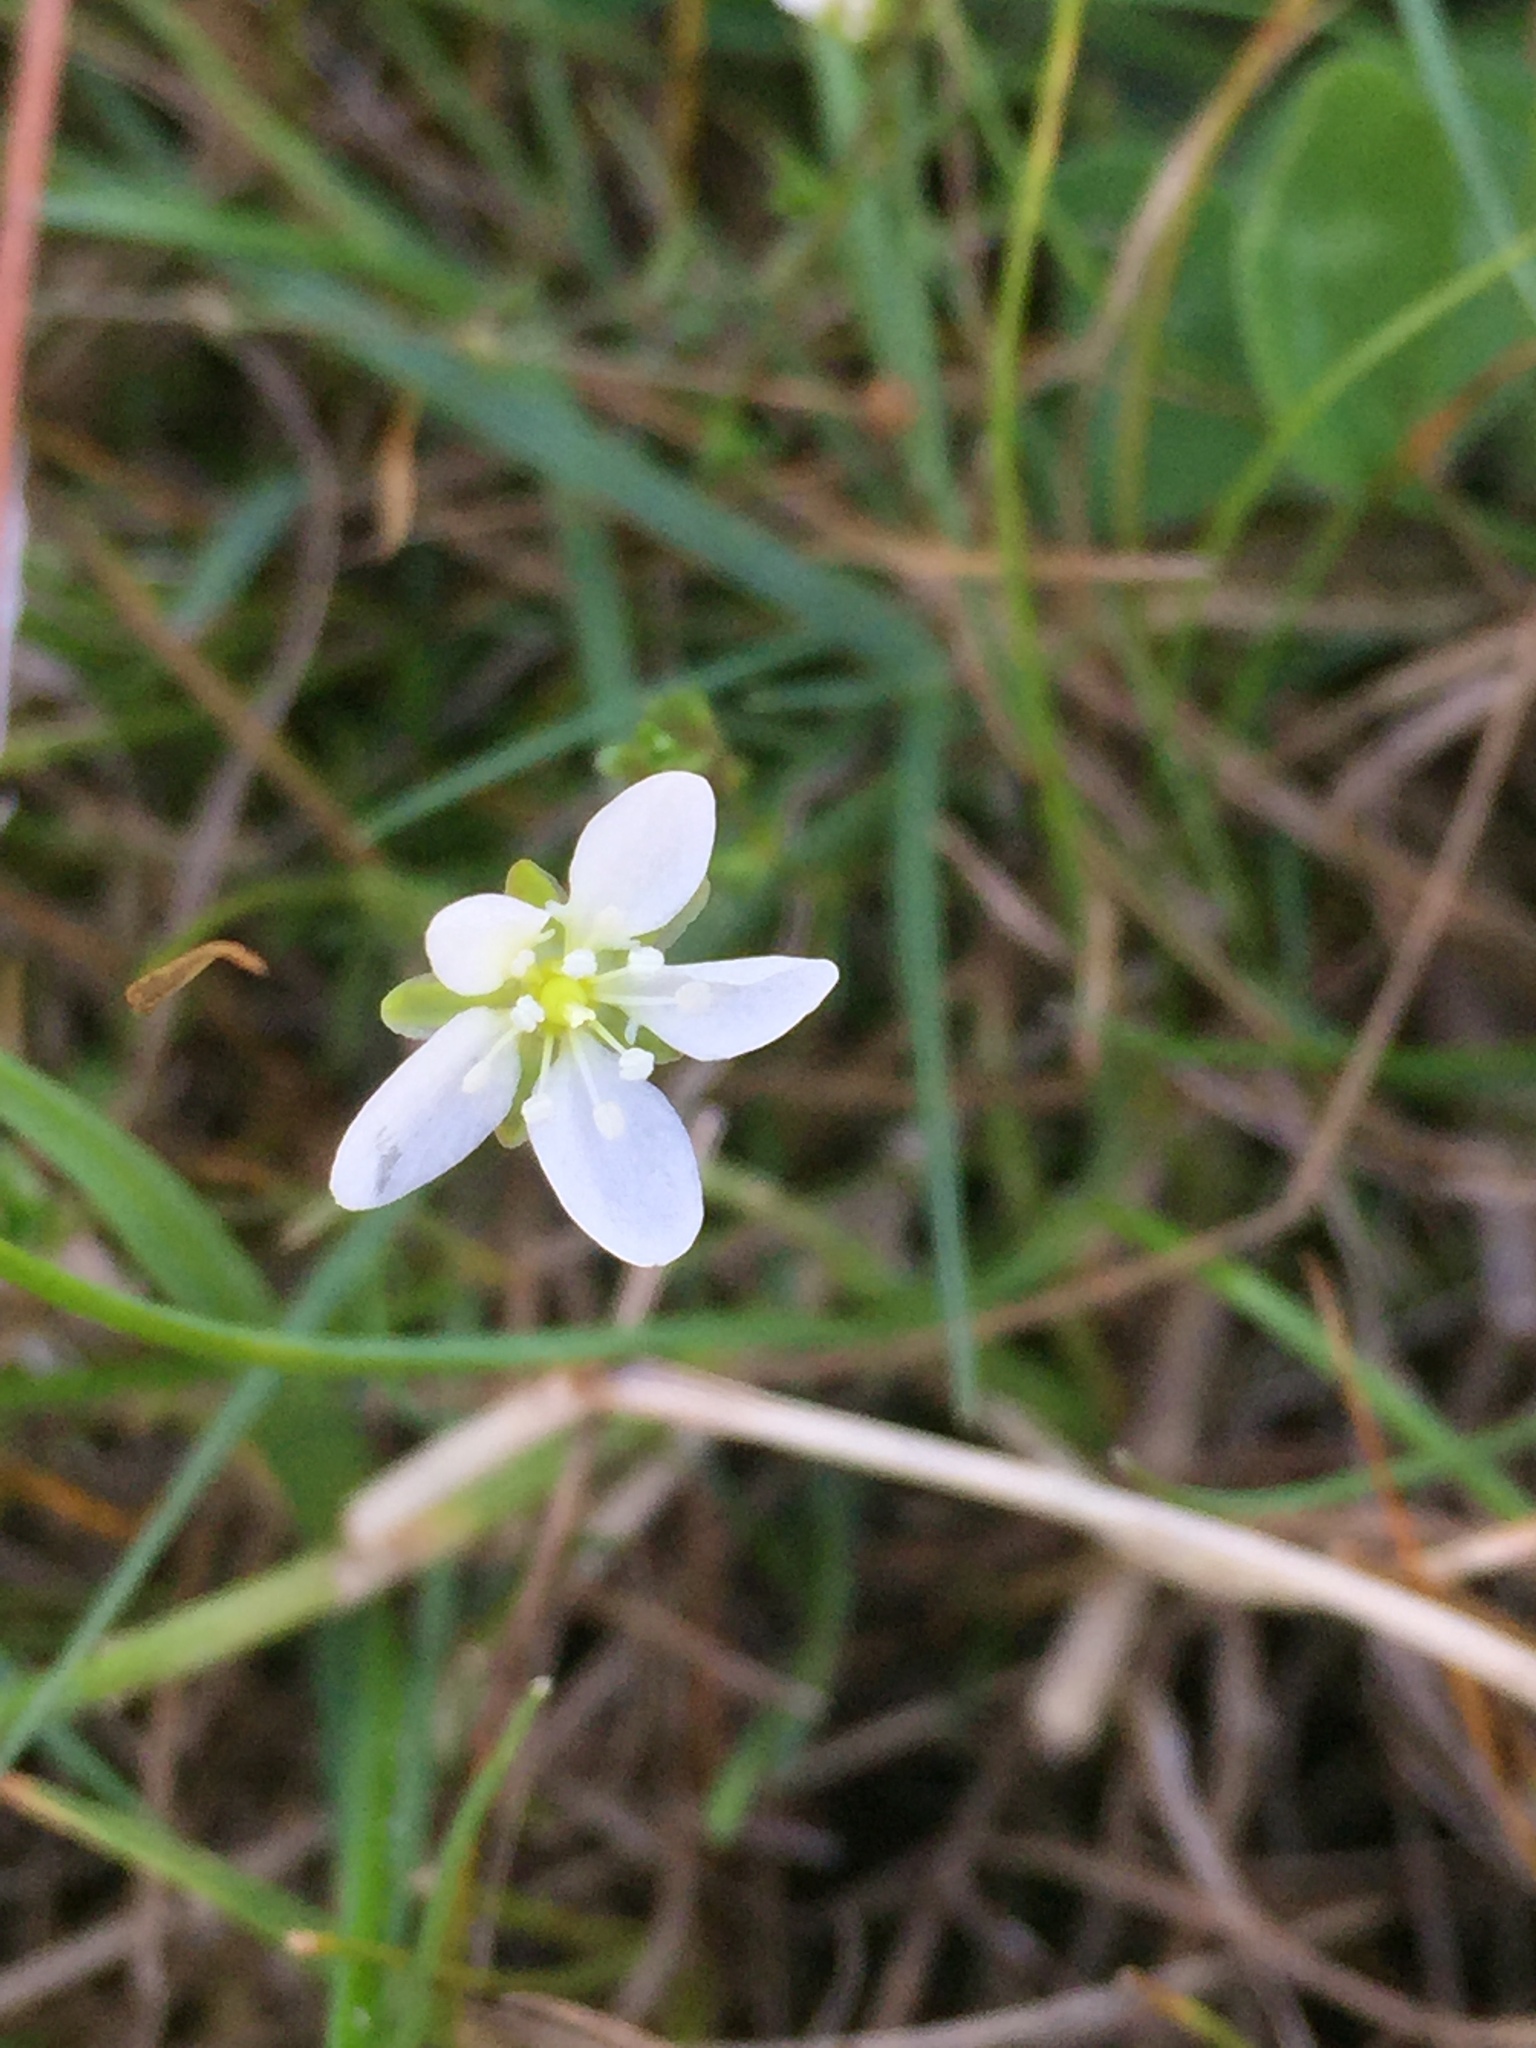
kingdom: Plantae
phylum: Tracheophyta
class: Magnoliopsida
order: Caryophyllales
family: Caryophyllaceae
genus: Sagina
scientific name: Sagina nodosa
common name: Knotted pearlwort
